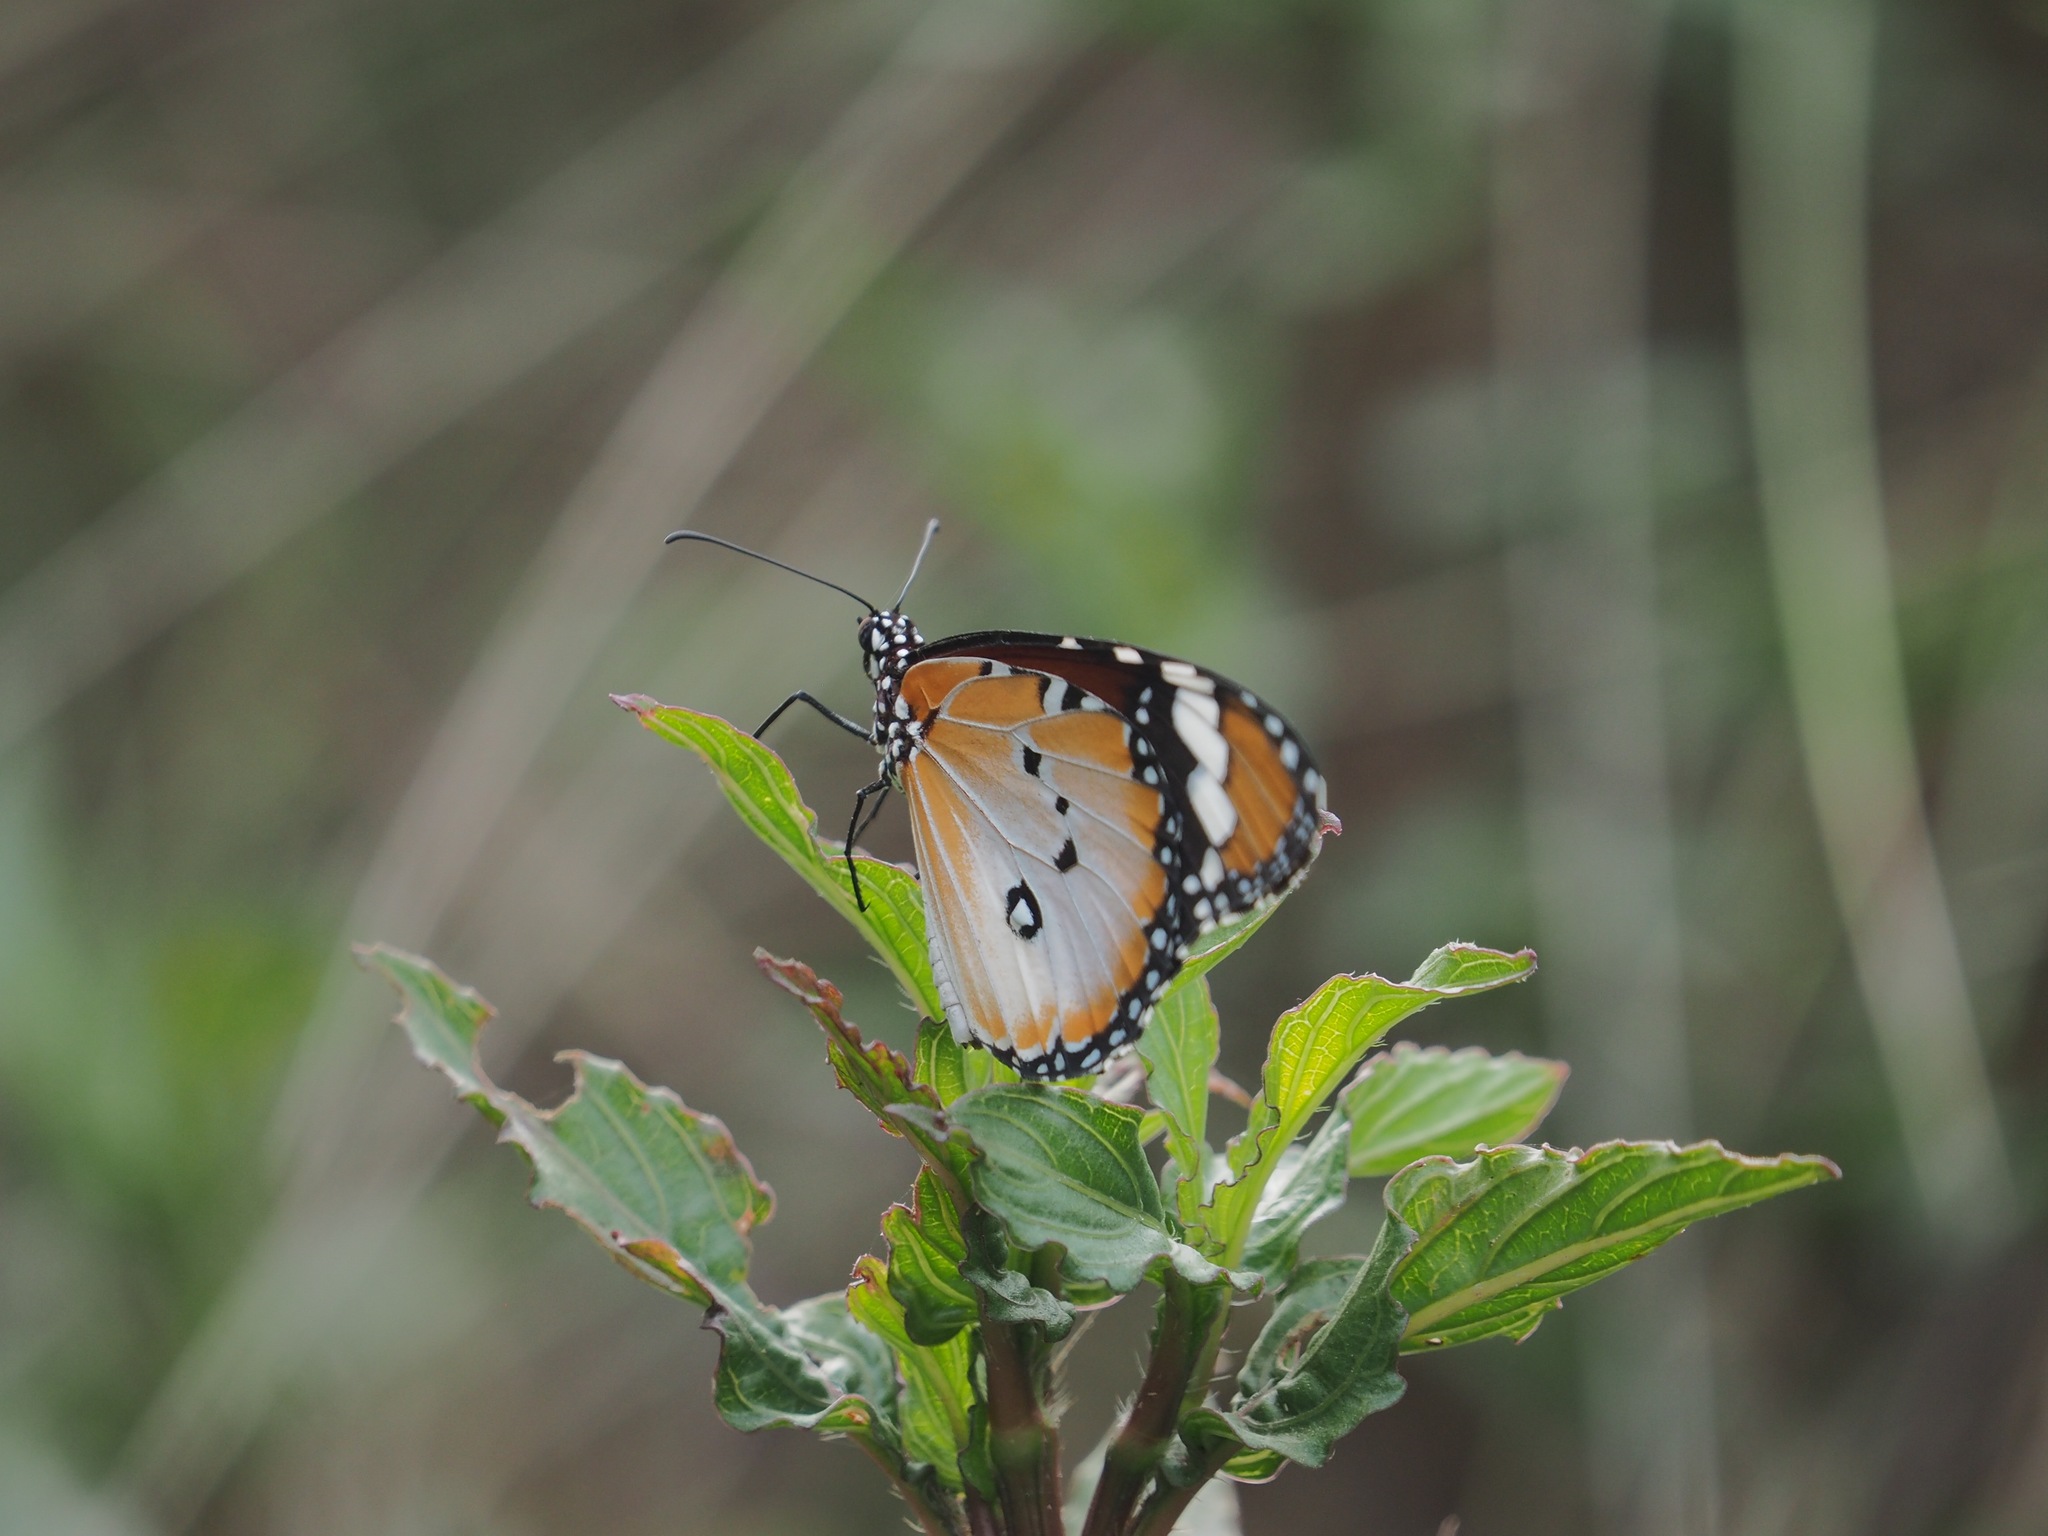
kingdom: Animalia
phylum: Arthropoda
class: Insecta
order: Lepidoptera
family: Nymphalidae
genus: Danaus
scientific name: Danaus chrysippus
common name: Plain tiger
